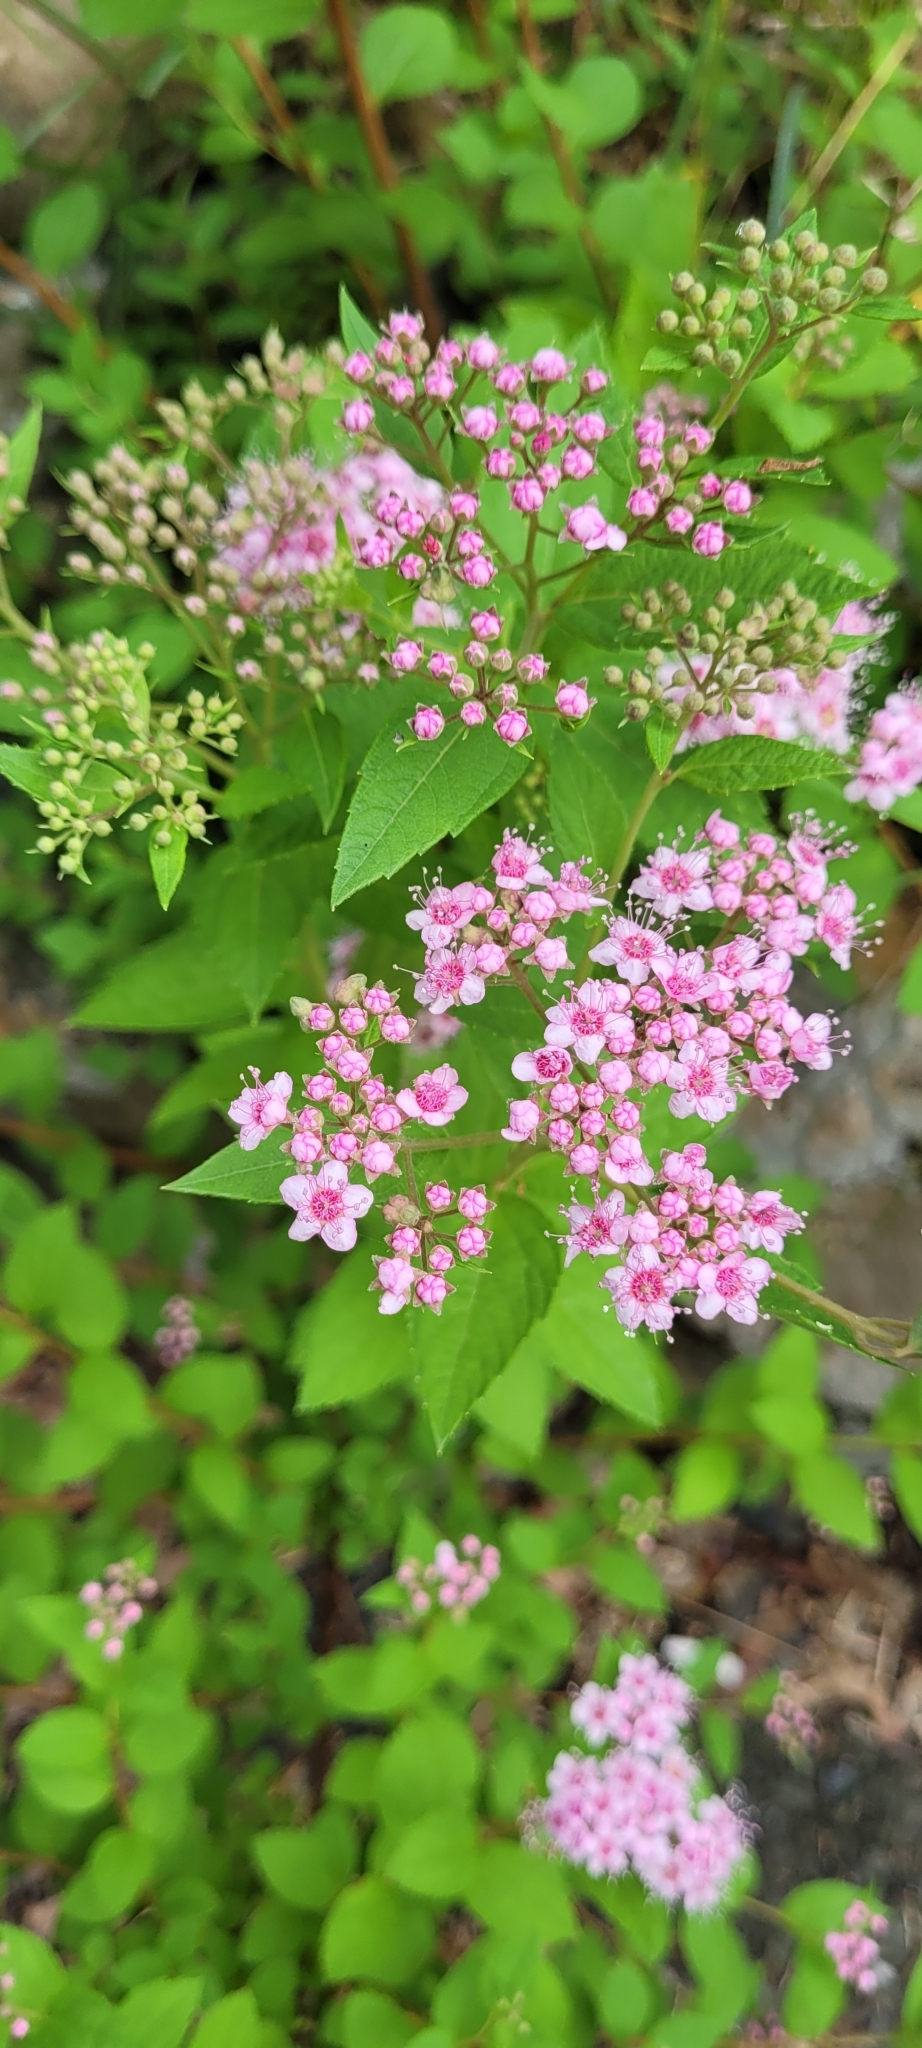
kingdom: Plantae
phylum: Tracheophyta
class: Magnoliopsida
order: Rosales
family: Rosaceae
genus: Spiraea
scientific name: Spiraea japonica
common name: Japanese spiraea
